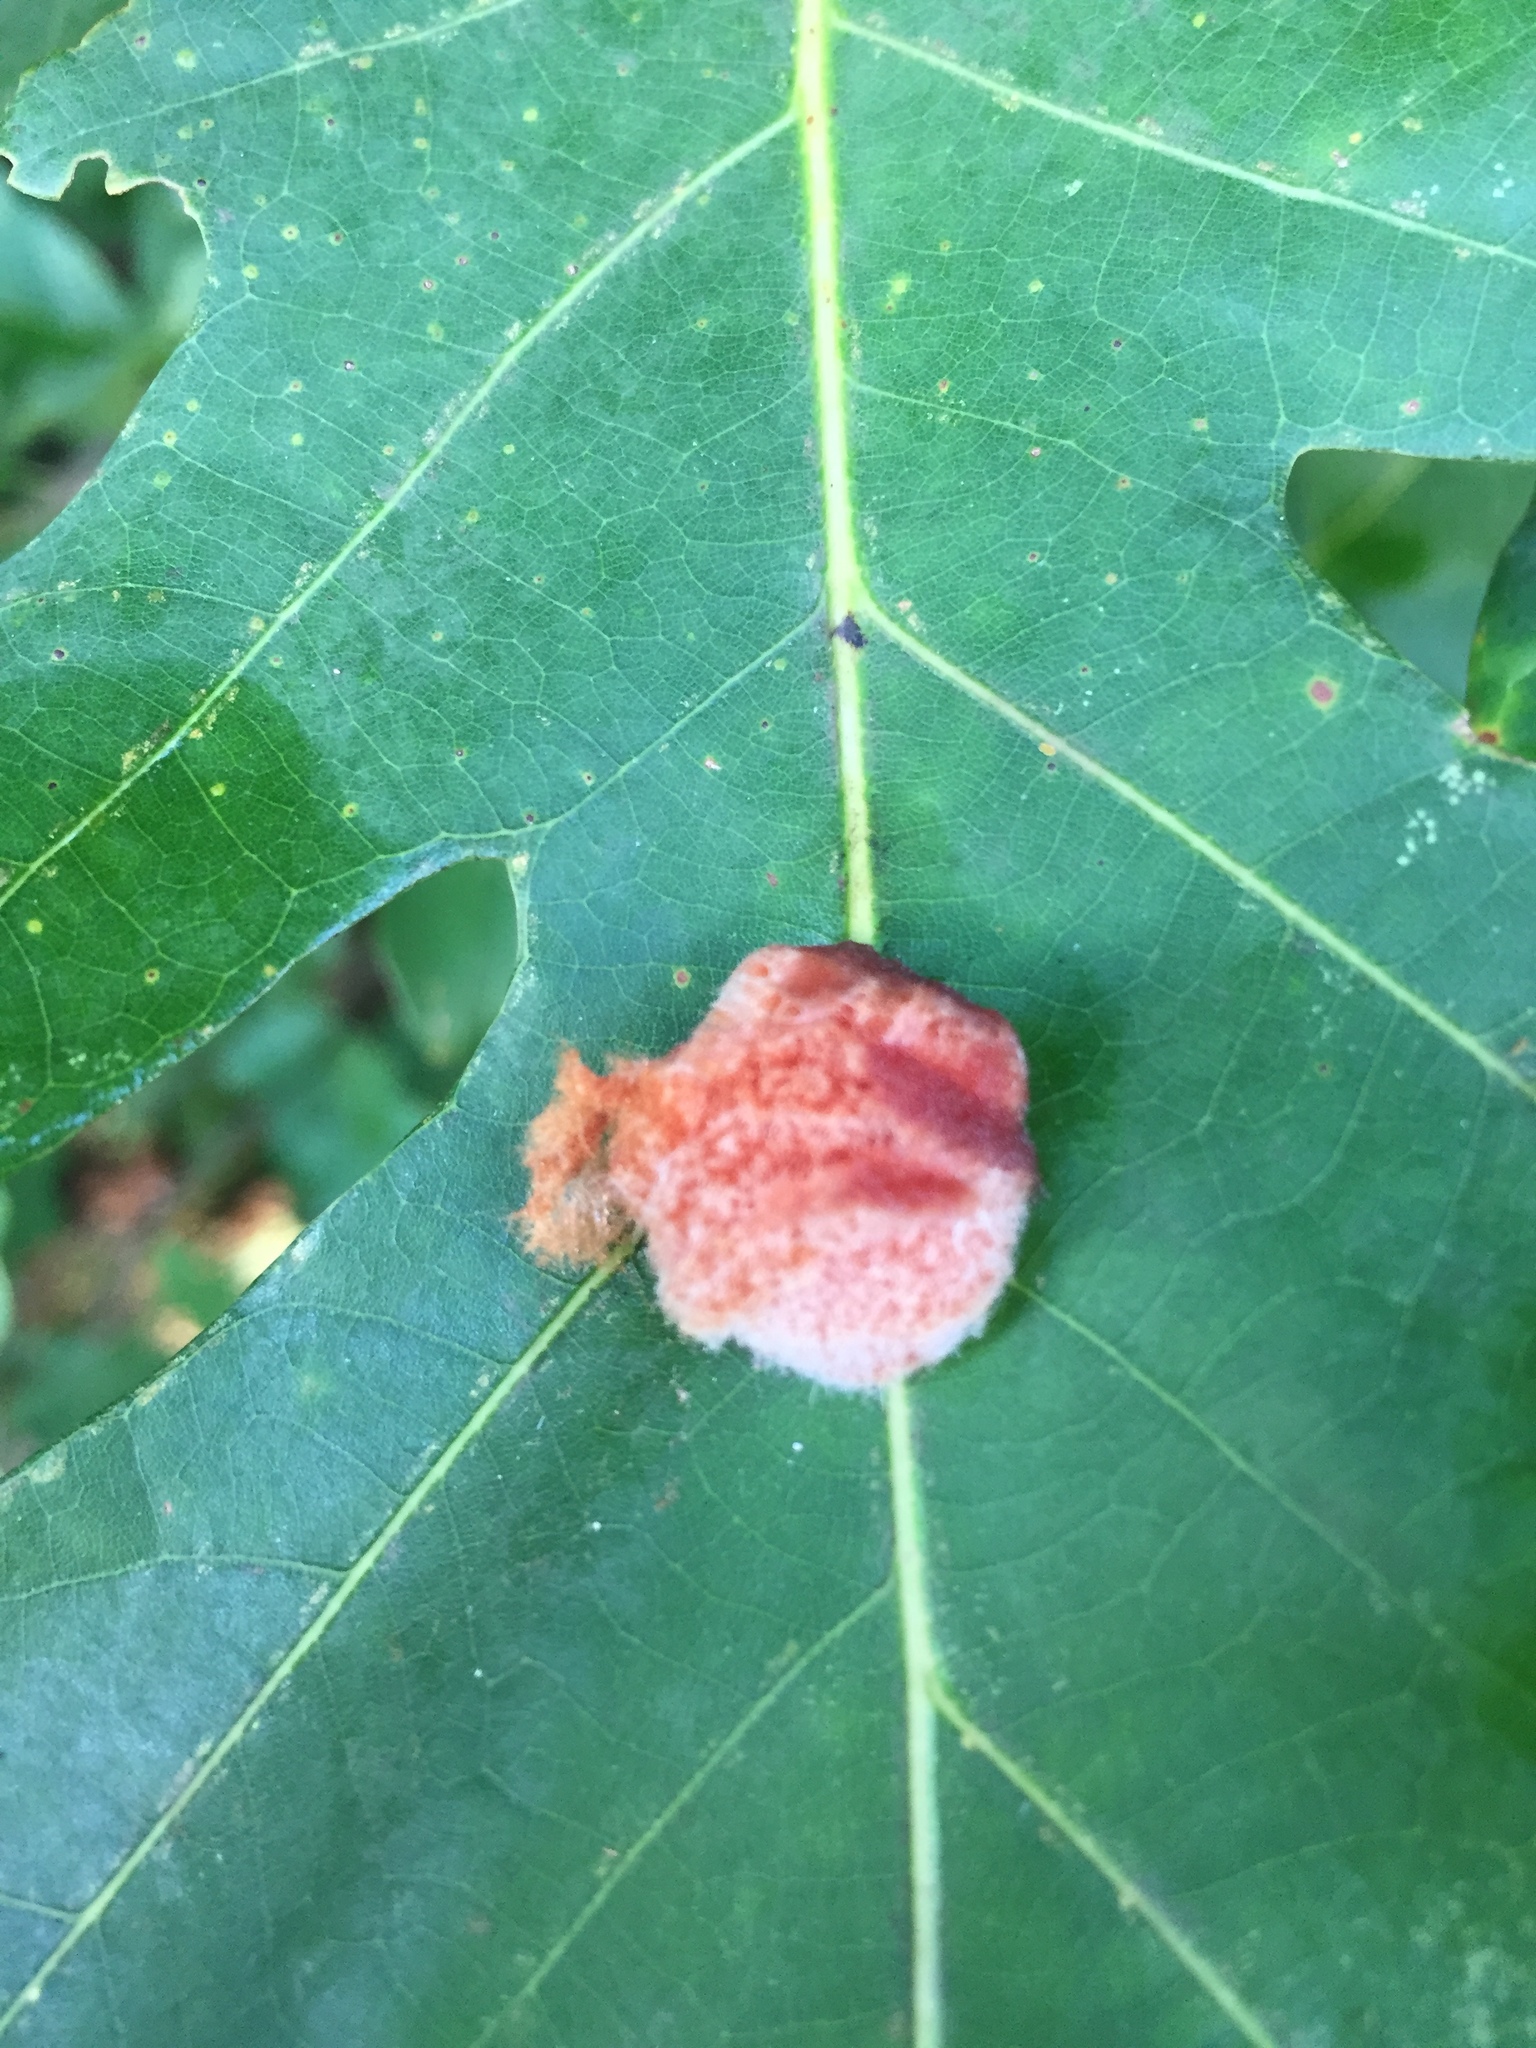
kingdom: Animalia
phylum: Arthropoda
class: Insecta
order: Hymenoptera
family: Cynipidae
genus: Andricus
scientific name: Andricus quercusflocci
